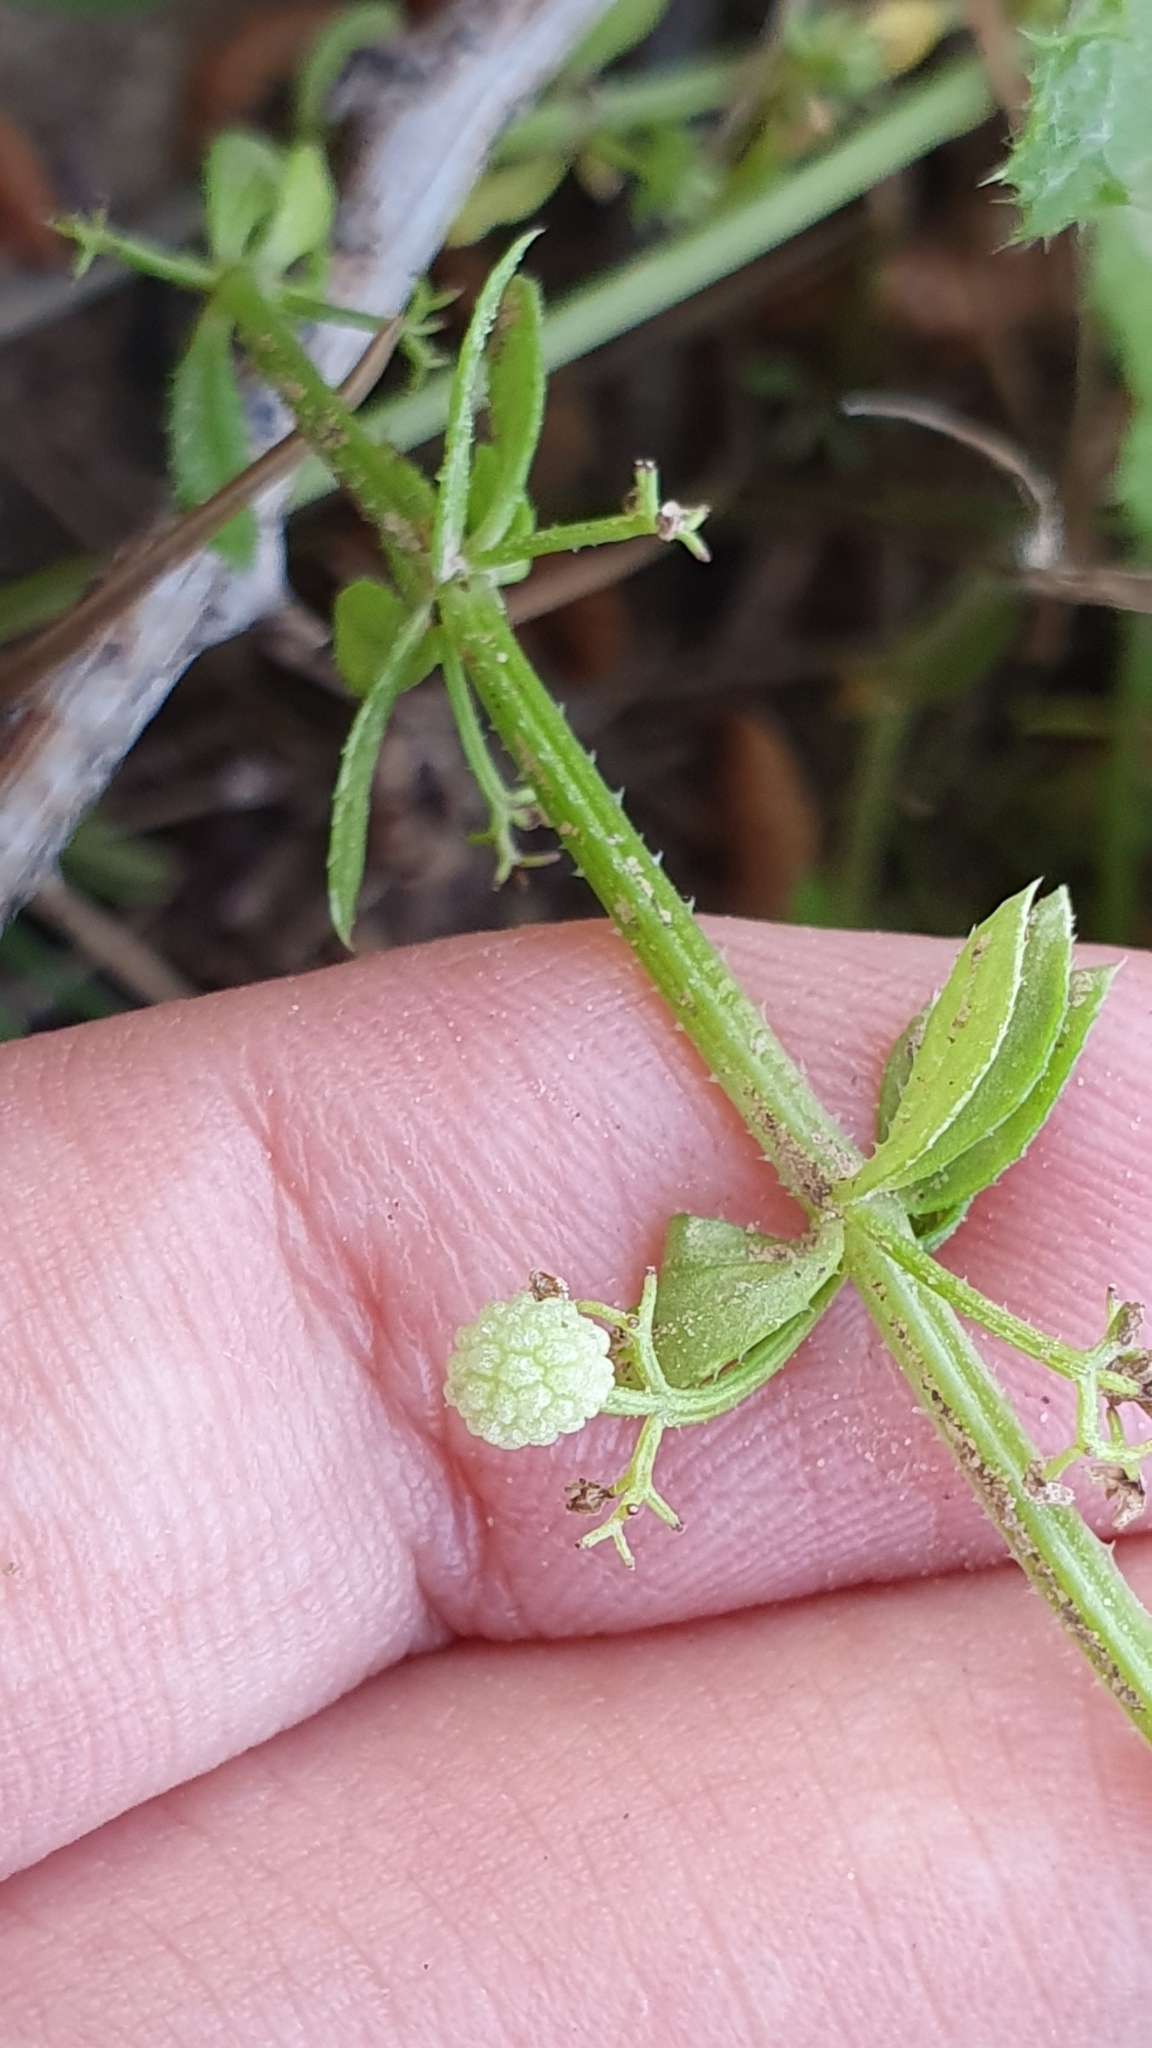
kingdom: Plantae
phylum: Tracheophyta
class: Magnoliopsida
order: Gentianales
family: Rubiaceae
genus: Galium
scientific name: Galium verrucosum
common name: Warty bedstraw
